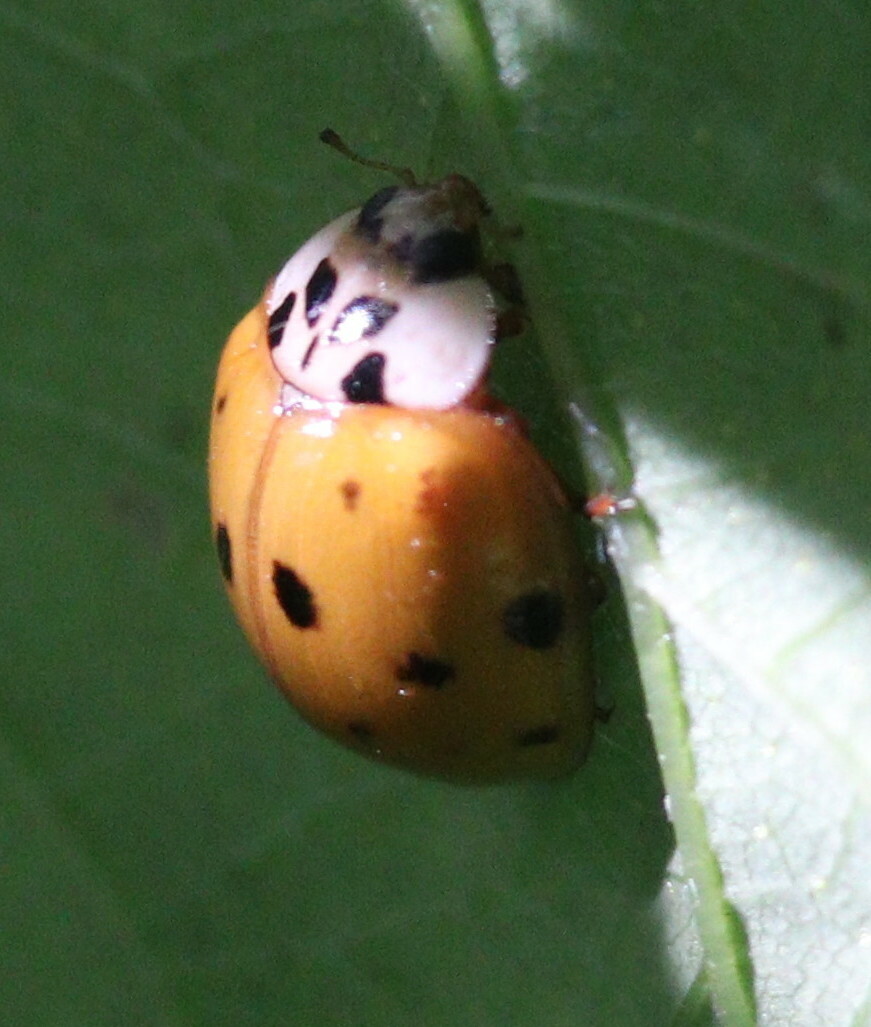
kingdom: Animalia
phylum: Arthropoda
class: Insecta
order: Coleoptera
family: Coccinellidae
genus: Harmonia
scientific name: Harmonia axyridis
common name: Harlequin ladybird
